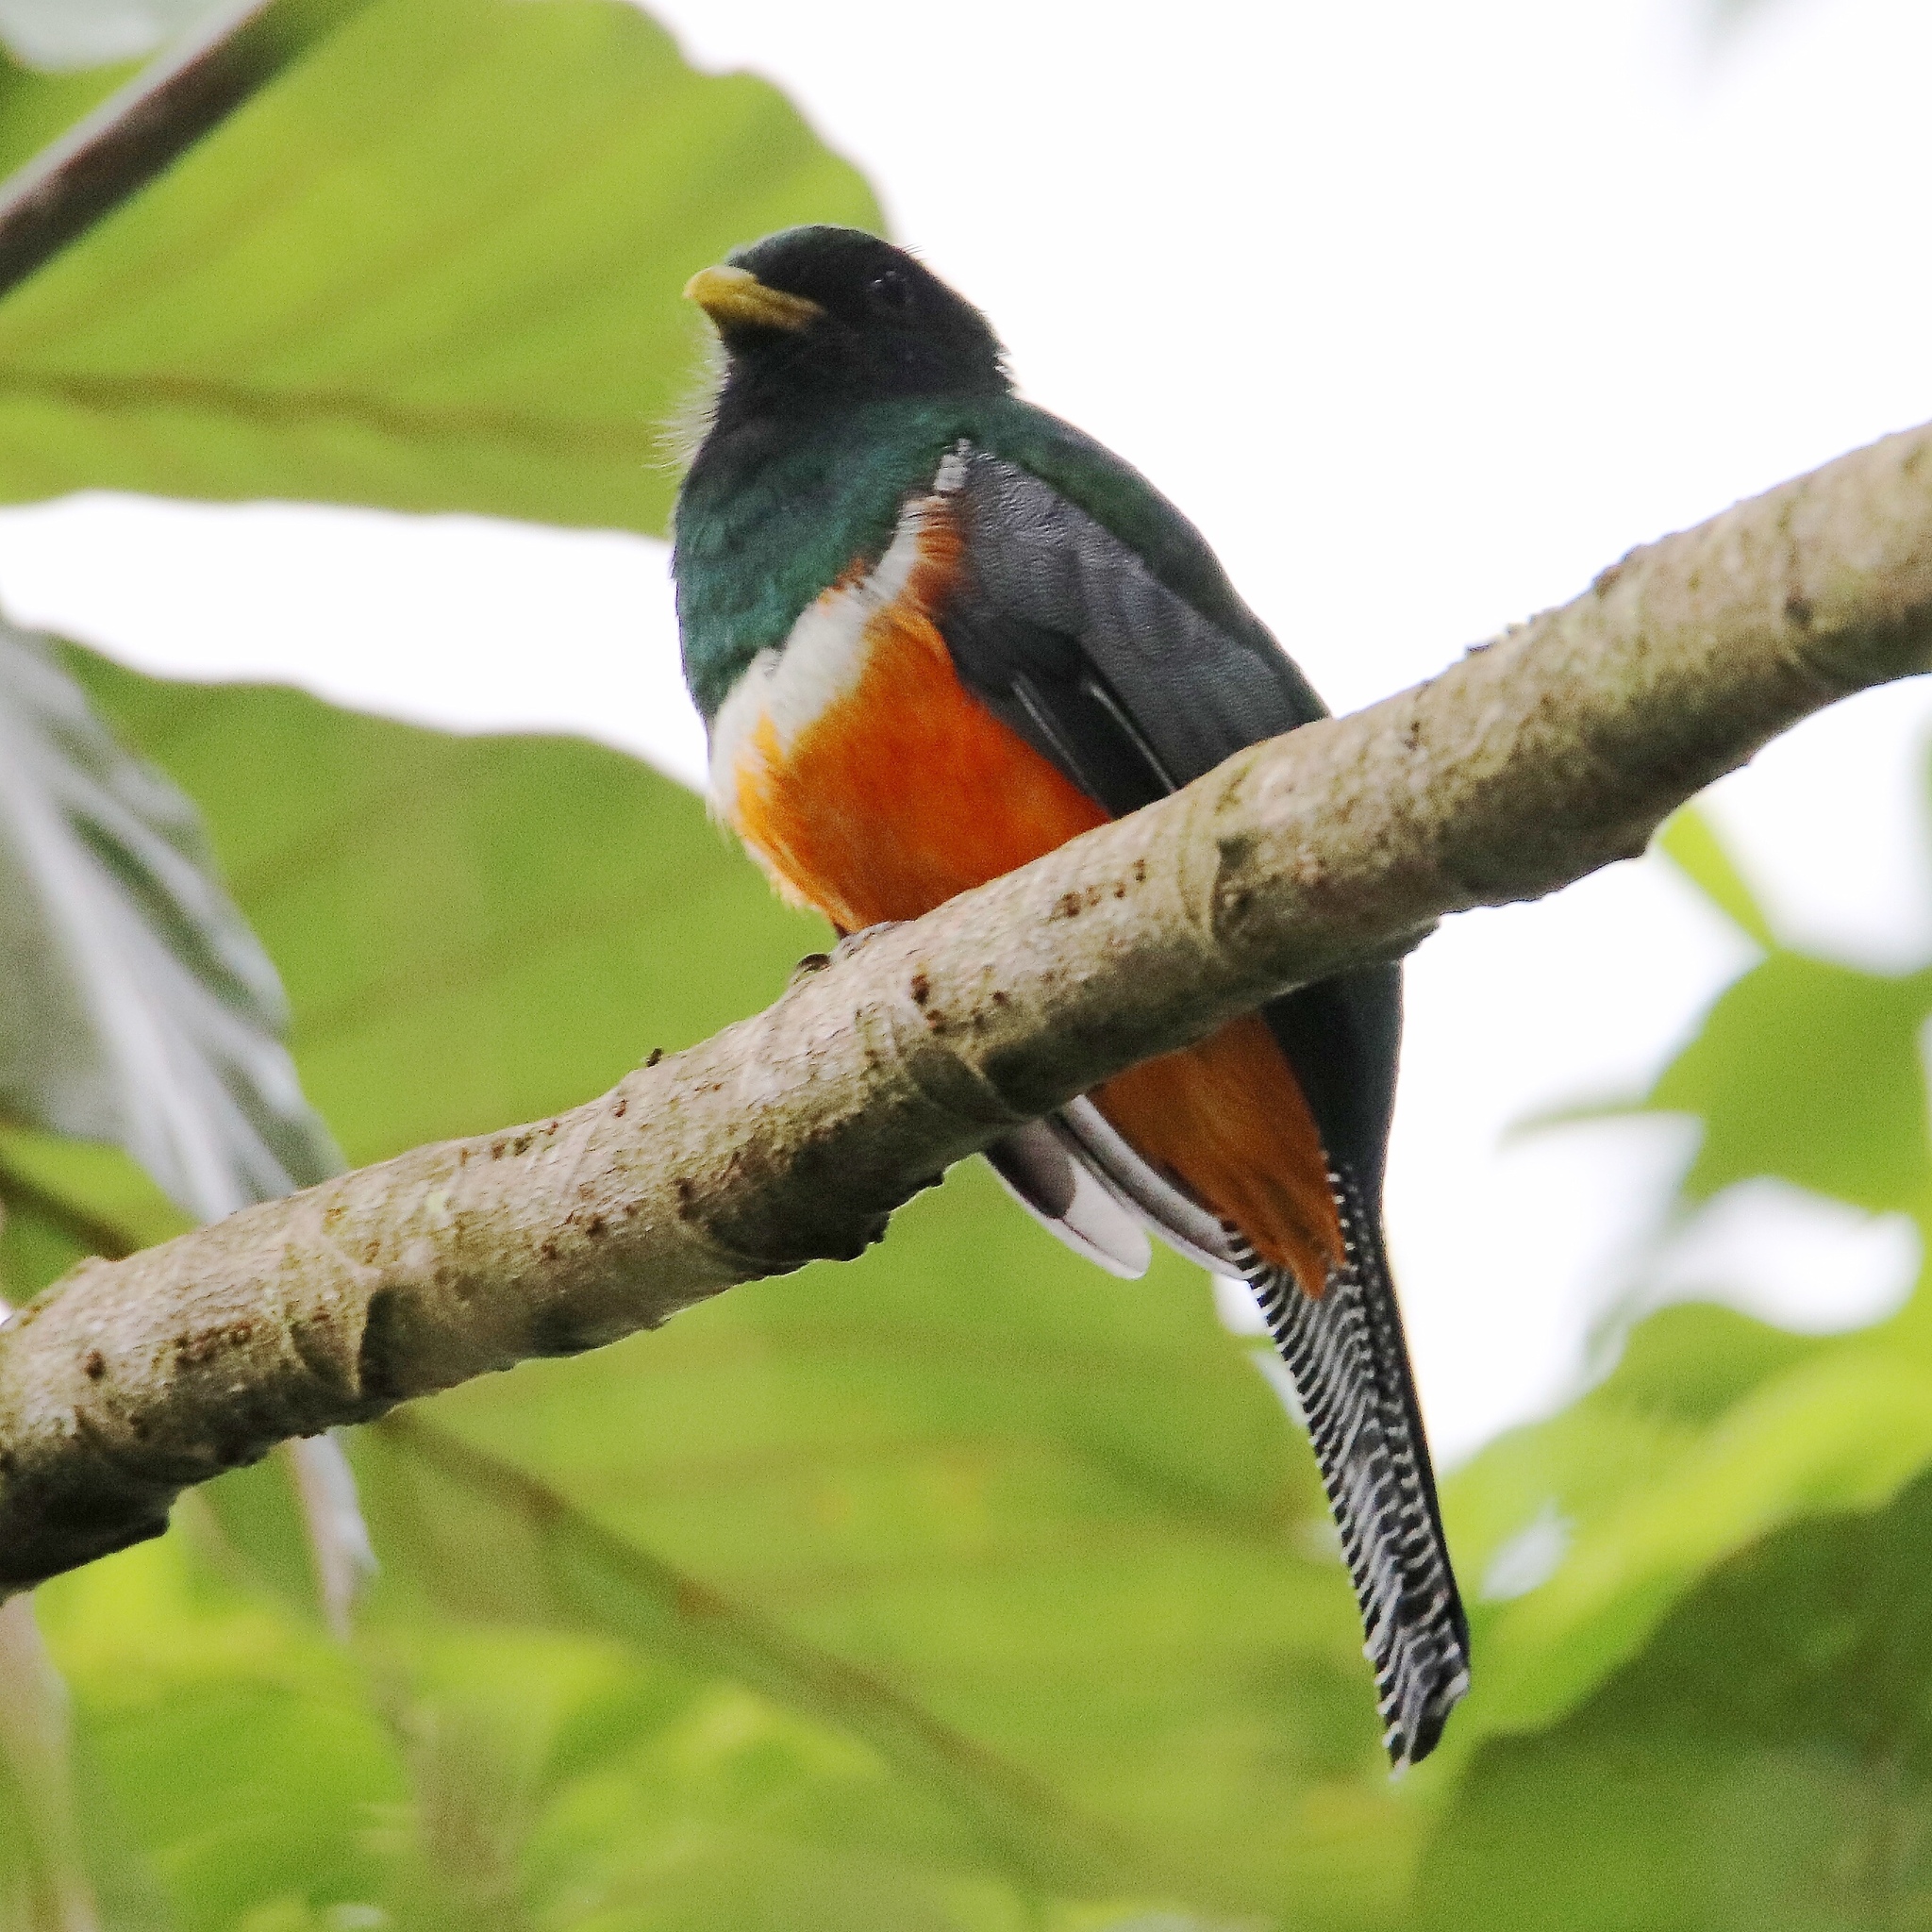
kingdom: Animalia
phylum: Chordata
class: Aves
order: Trogoniformes
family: Trogonidae
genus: Trogon
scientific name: Trogon collaris
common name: Collared trogon
